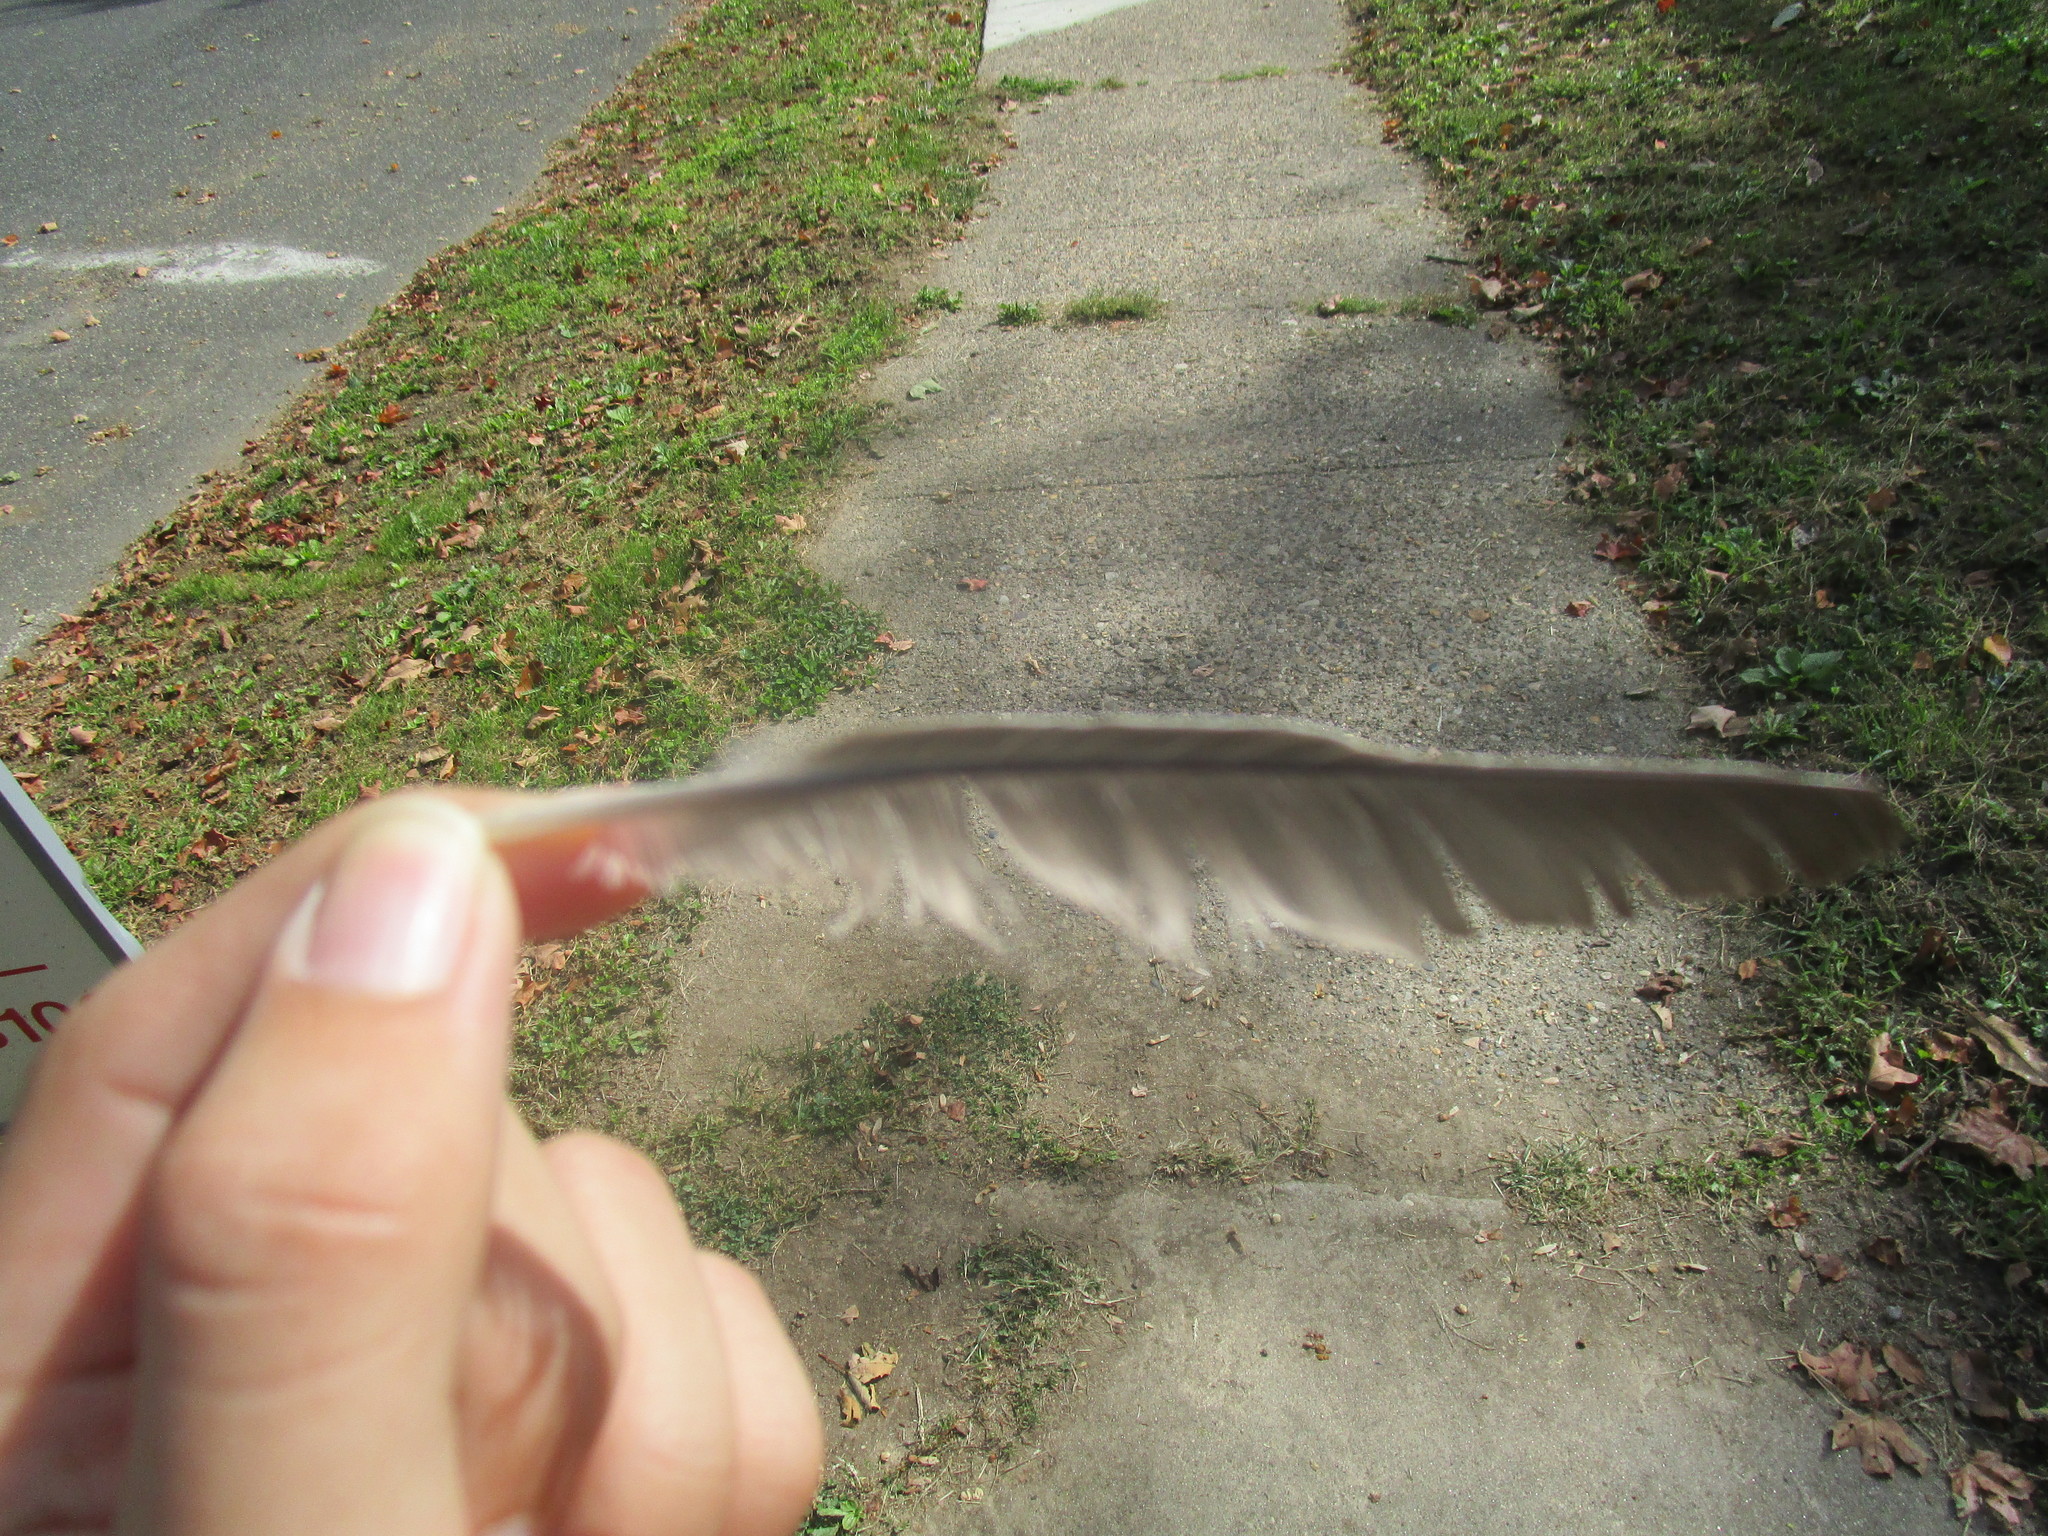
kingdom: Animalia
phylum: Chordata
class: Aves
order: Passeriformes
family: Turdidae
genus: Turdus
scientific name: Turdus migratorius
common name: American robin
